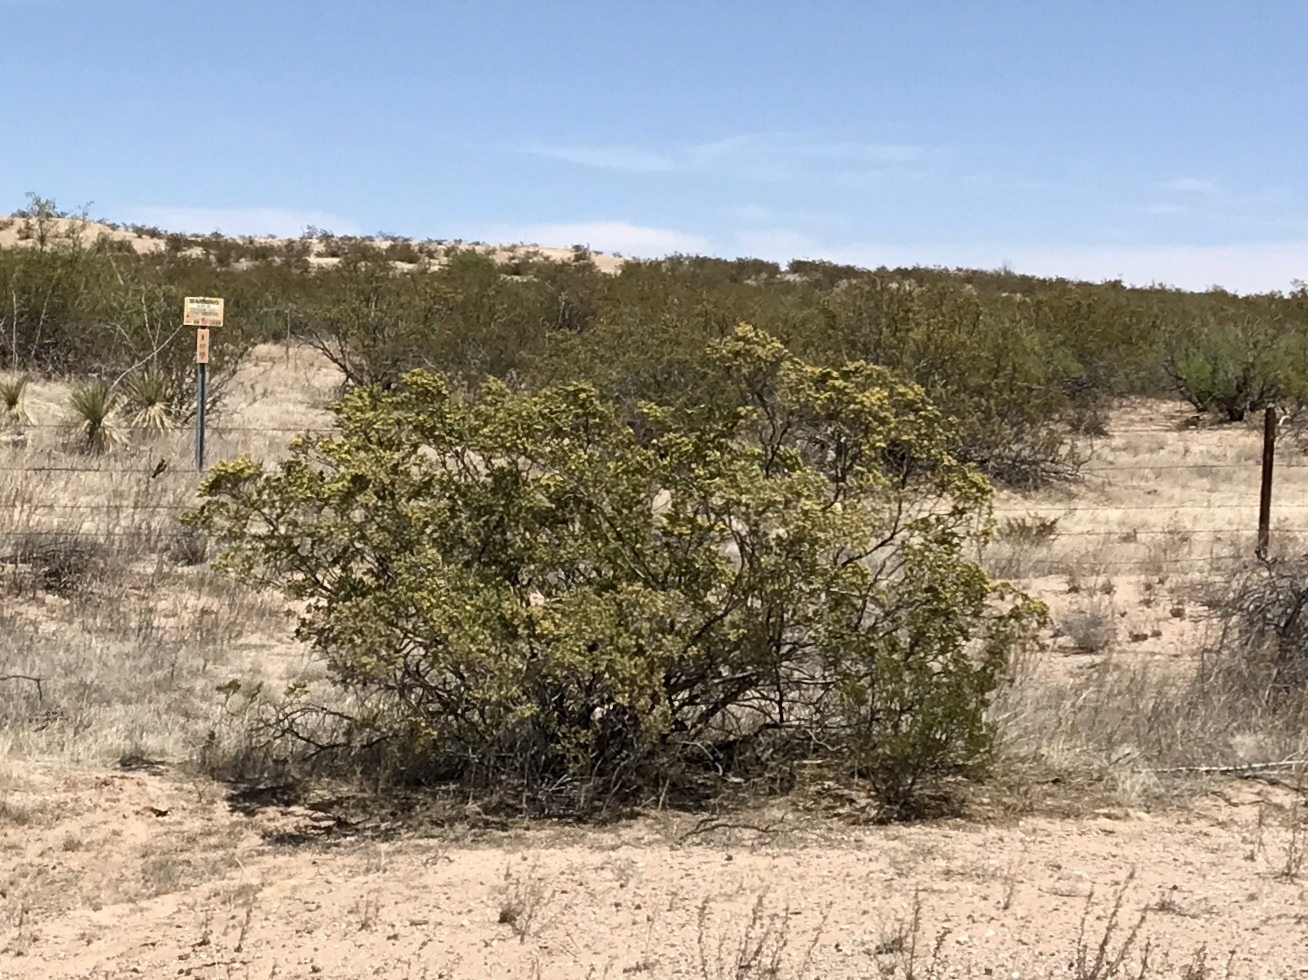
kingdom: Plantae
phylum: Tracheophyta
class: Magnoliopsida
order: Zygophyllales
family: Zygophyllaceae
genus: Larrea
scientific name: Larrea tridentata
